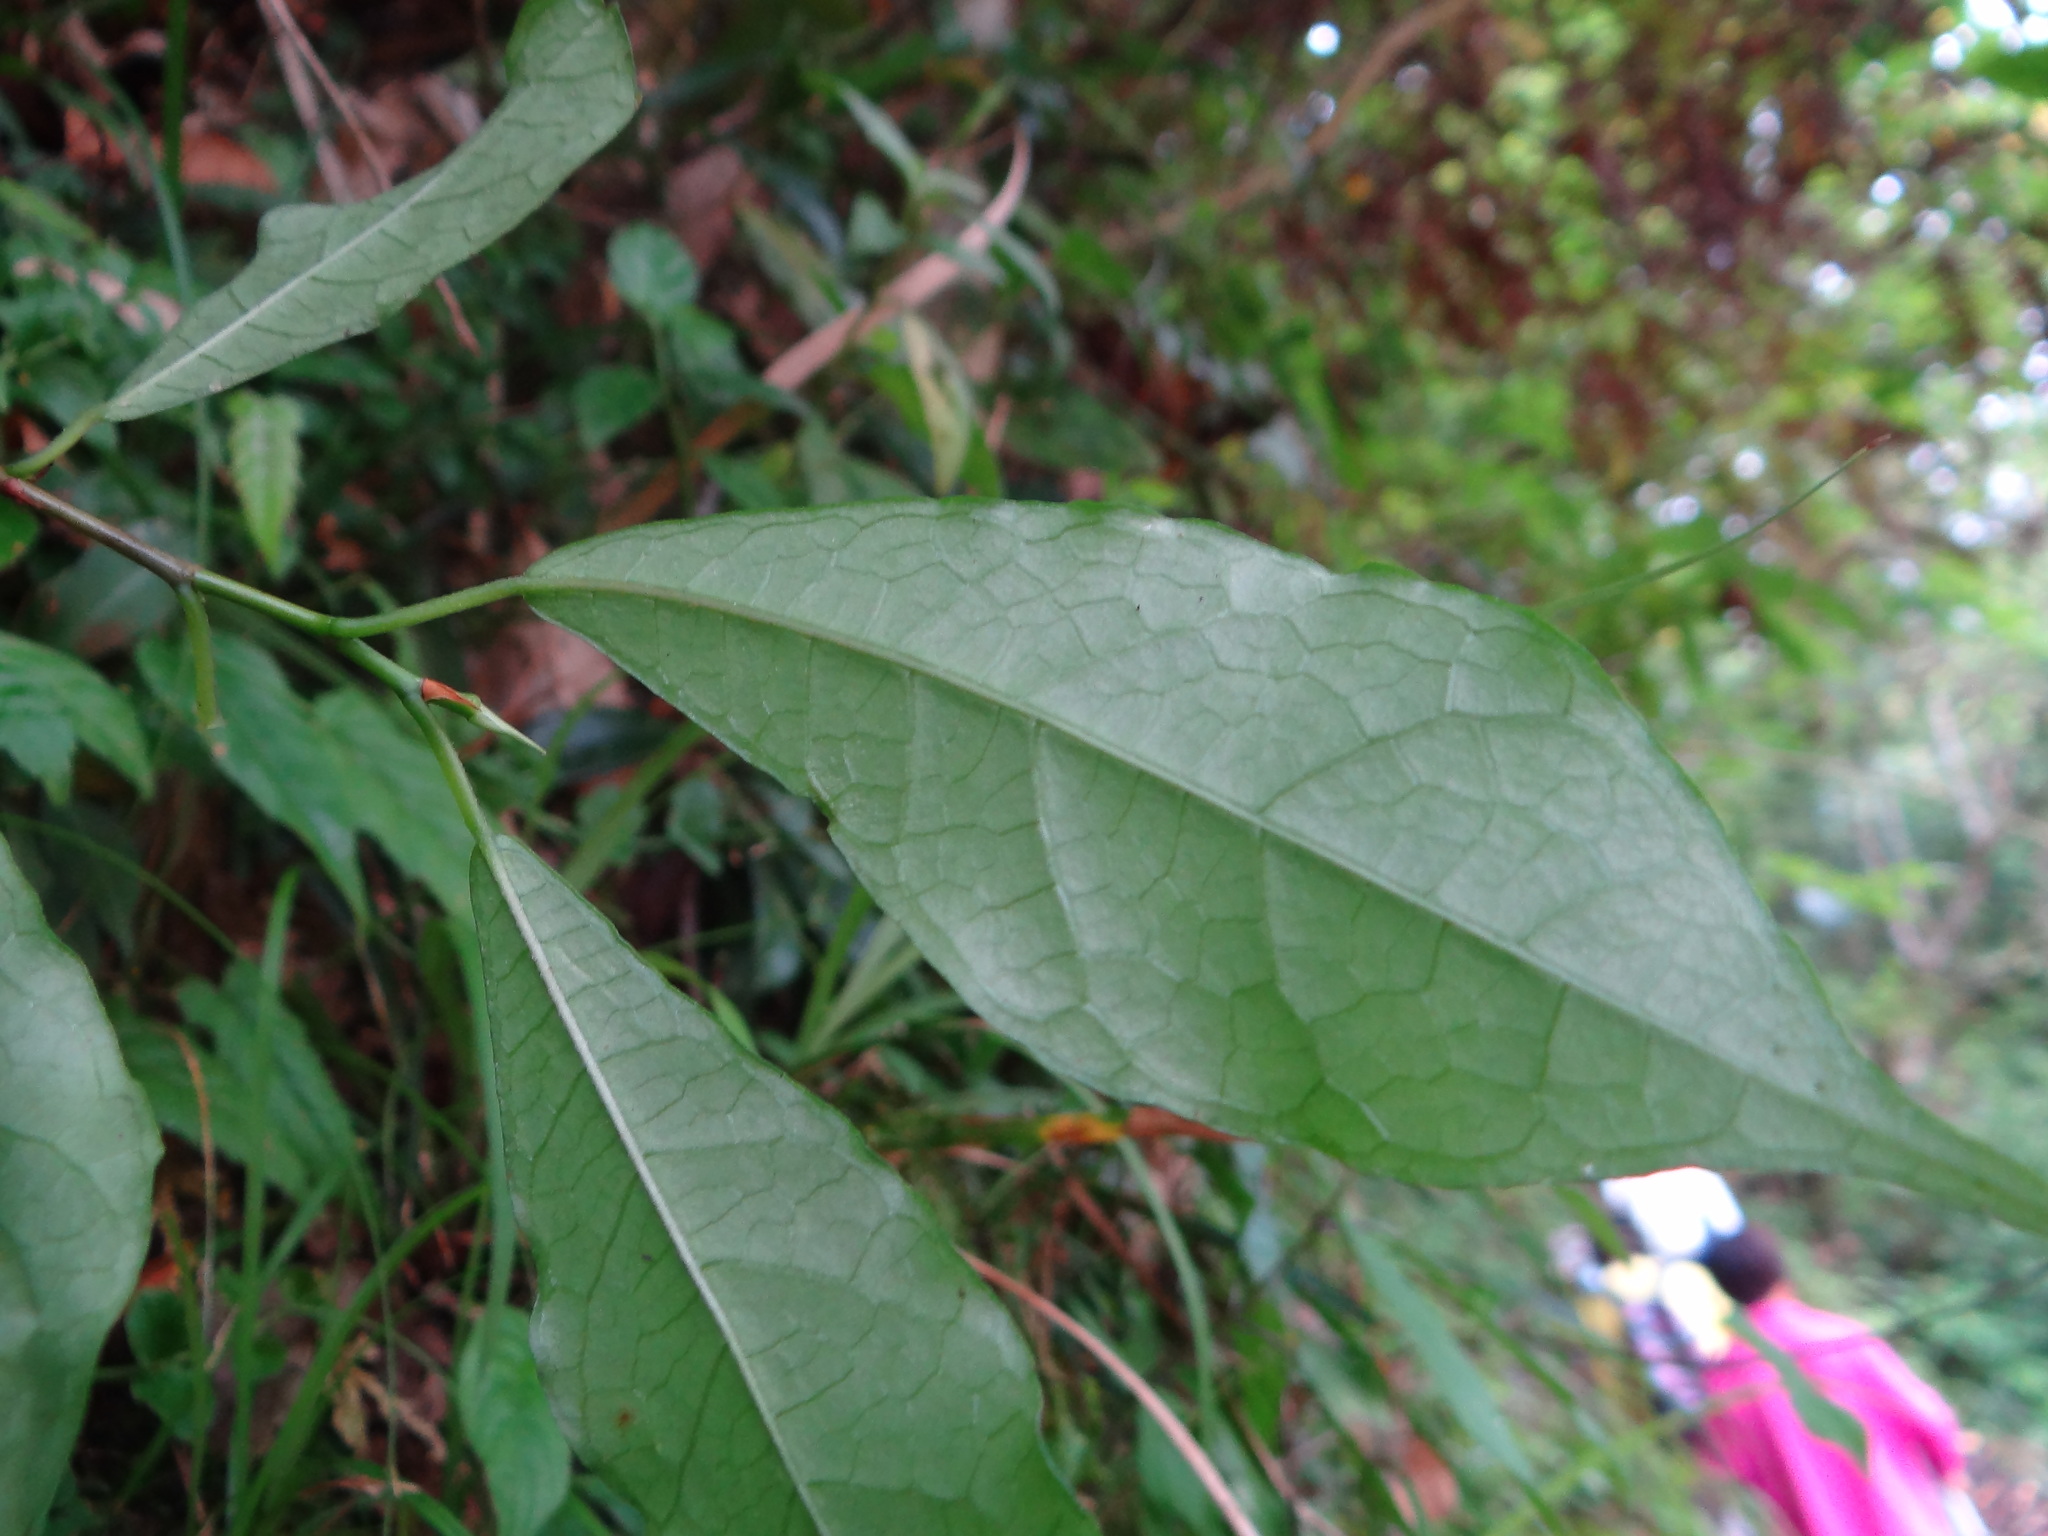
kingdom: Plantae
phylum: Tracheophyta
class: Magnoliopsida
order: Rosales
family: Moraceae
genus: Ficus
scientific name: Ficus formosana
